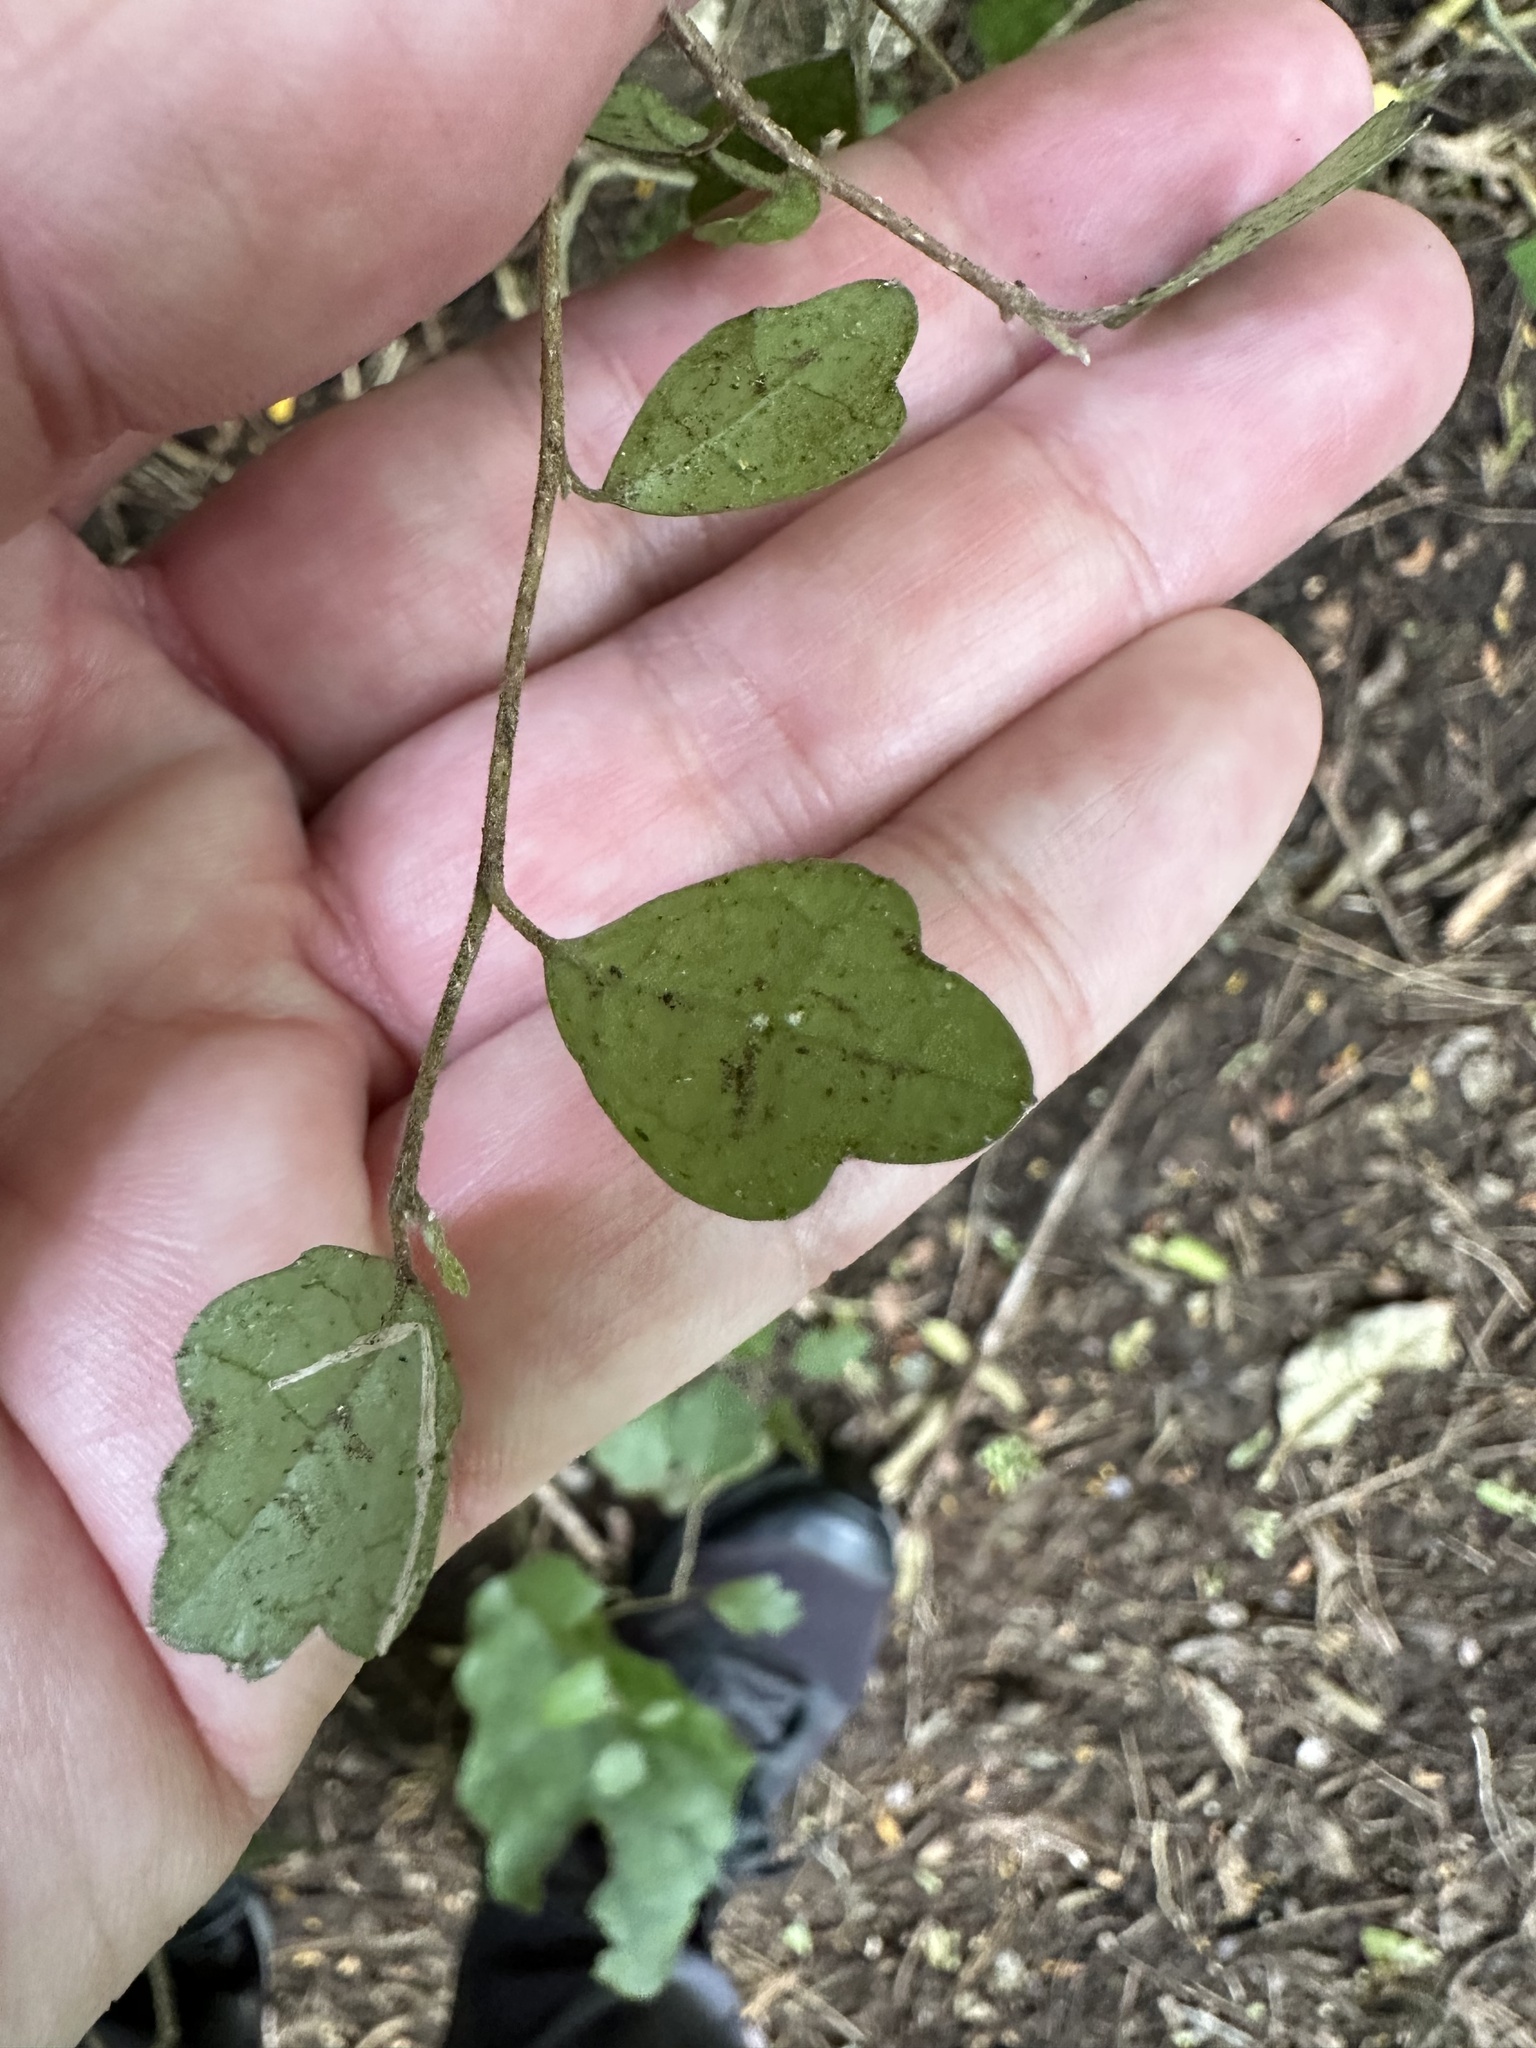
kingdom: Plantae
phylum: Tracheophyta
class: Magnoliopsida
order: Apiales
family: Pennantiaceae
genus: Pennantia
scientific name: Pennantia corymbosa
